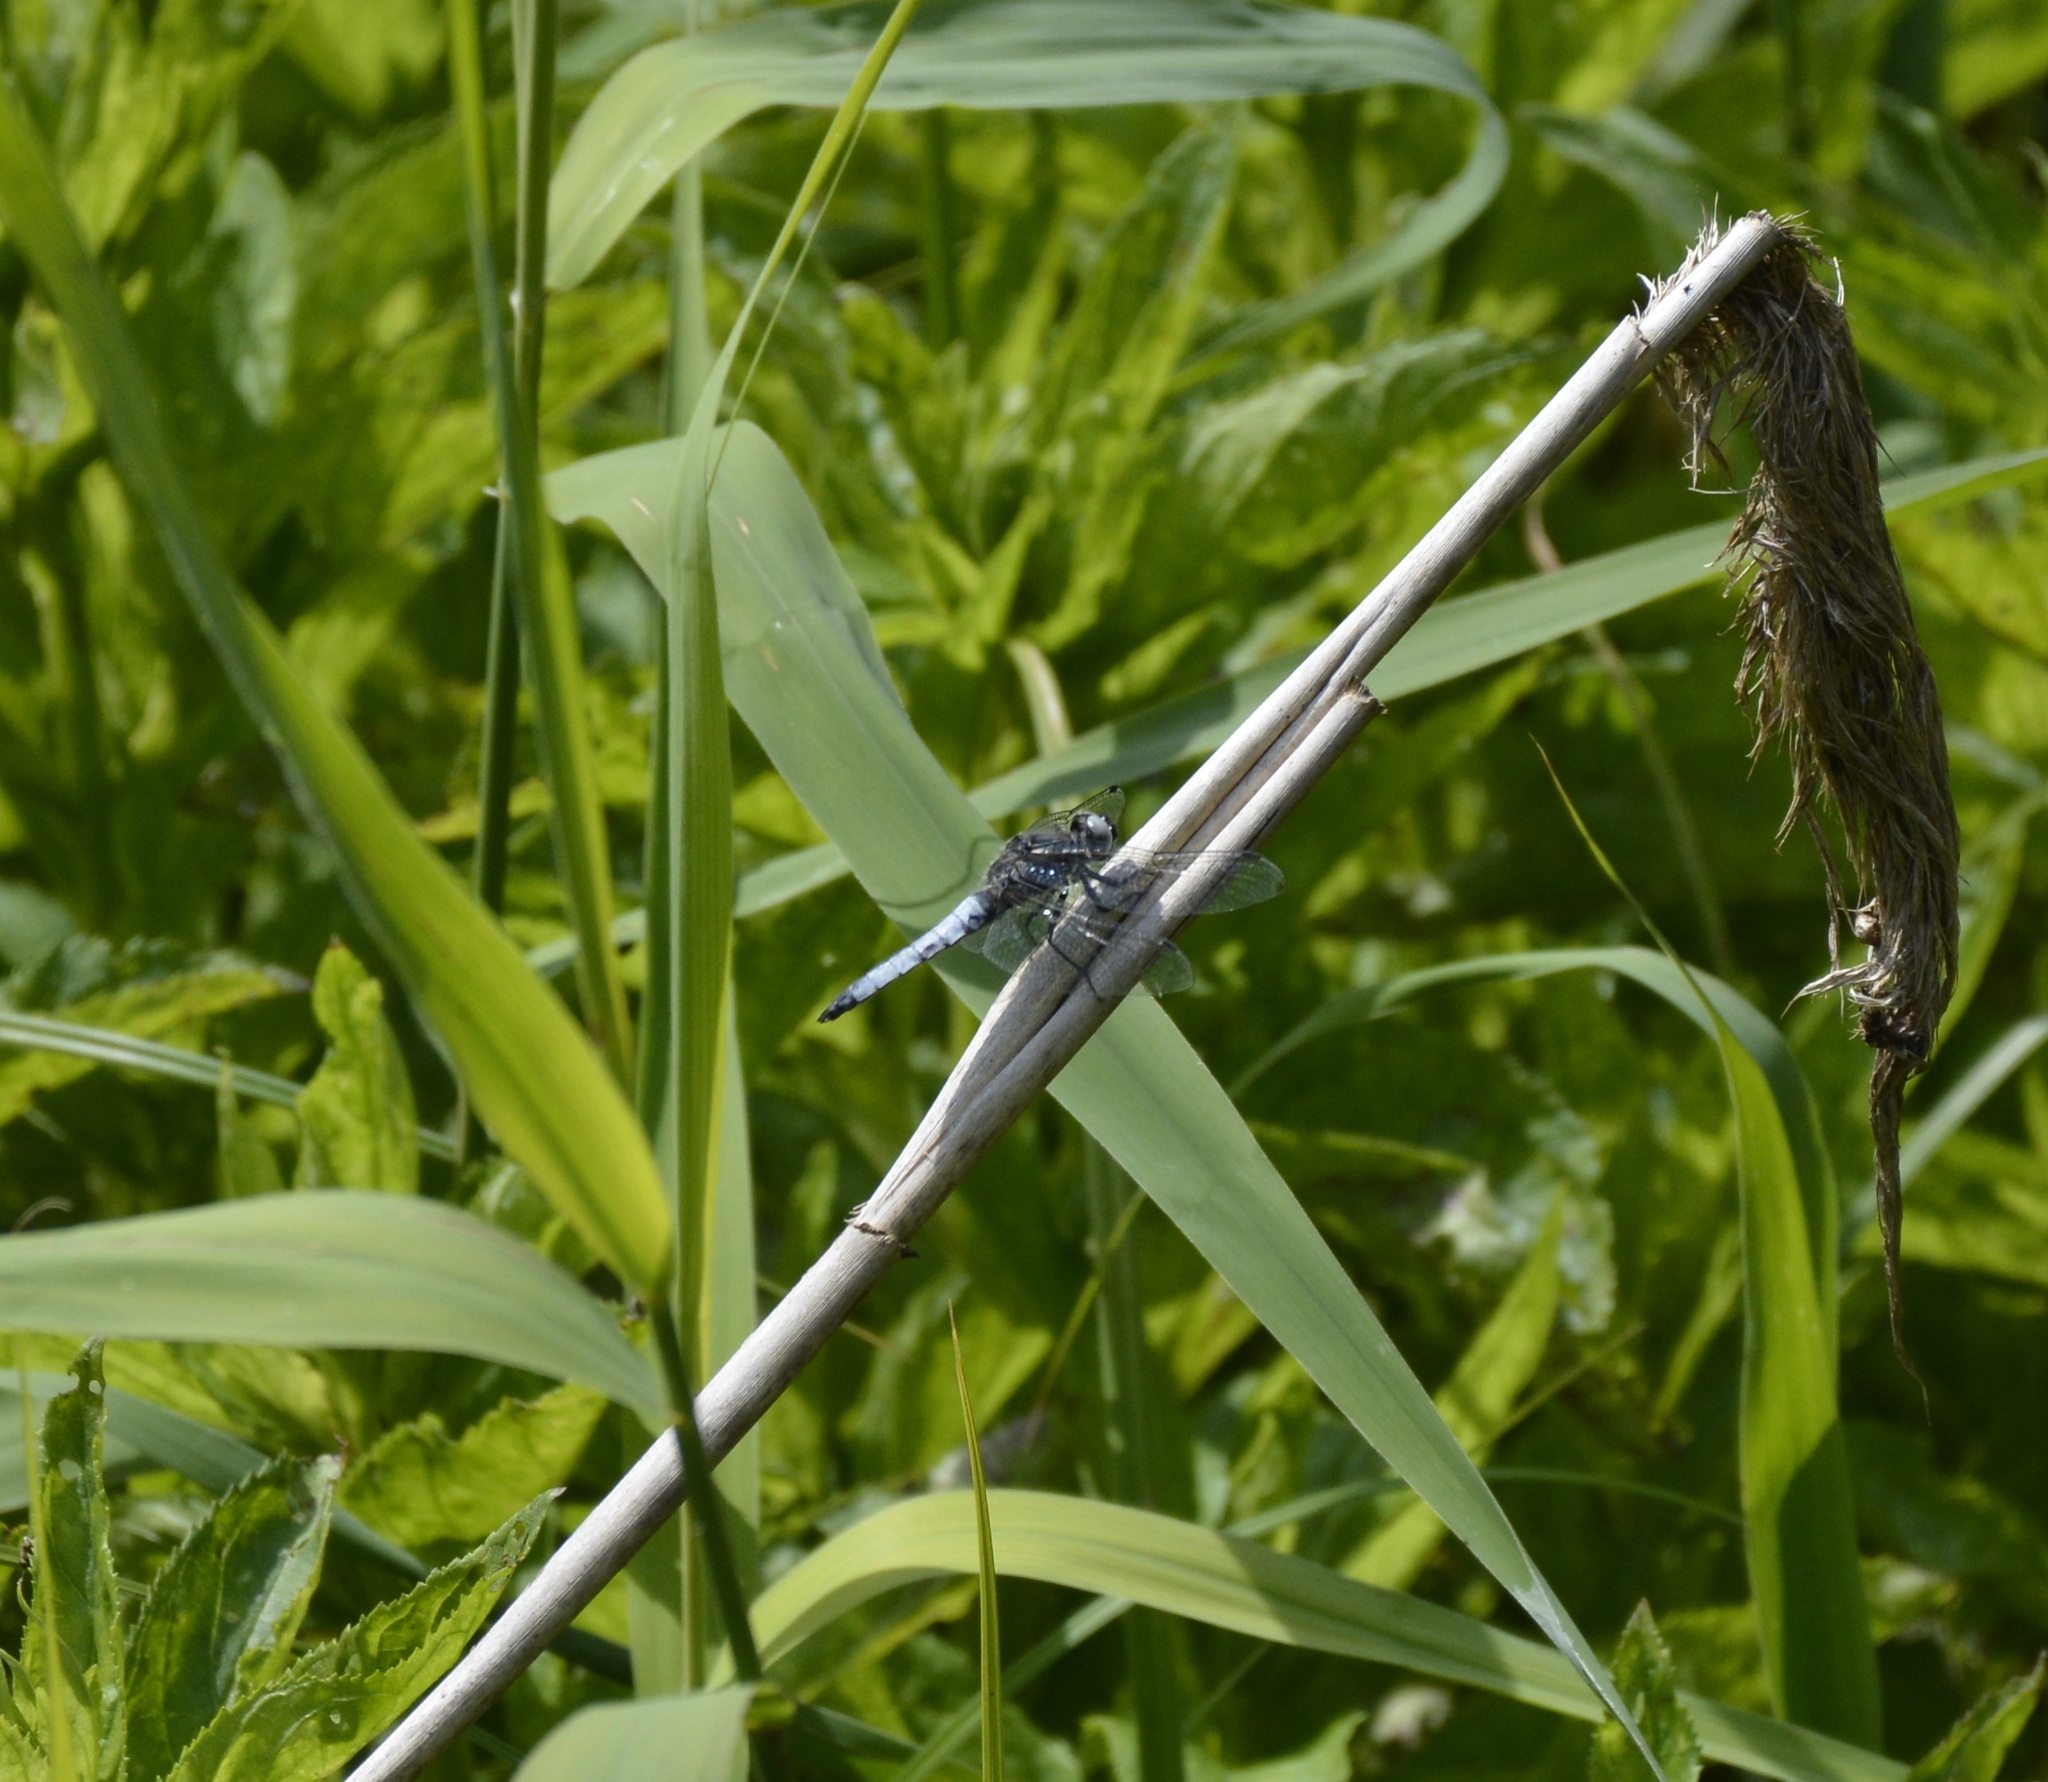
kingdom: Animalia
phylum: Arthropoda
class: Insecta
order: Odonata
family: Libellulidae
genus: Libellula
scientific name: Libellula fulva
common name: Blue chaser
